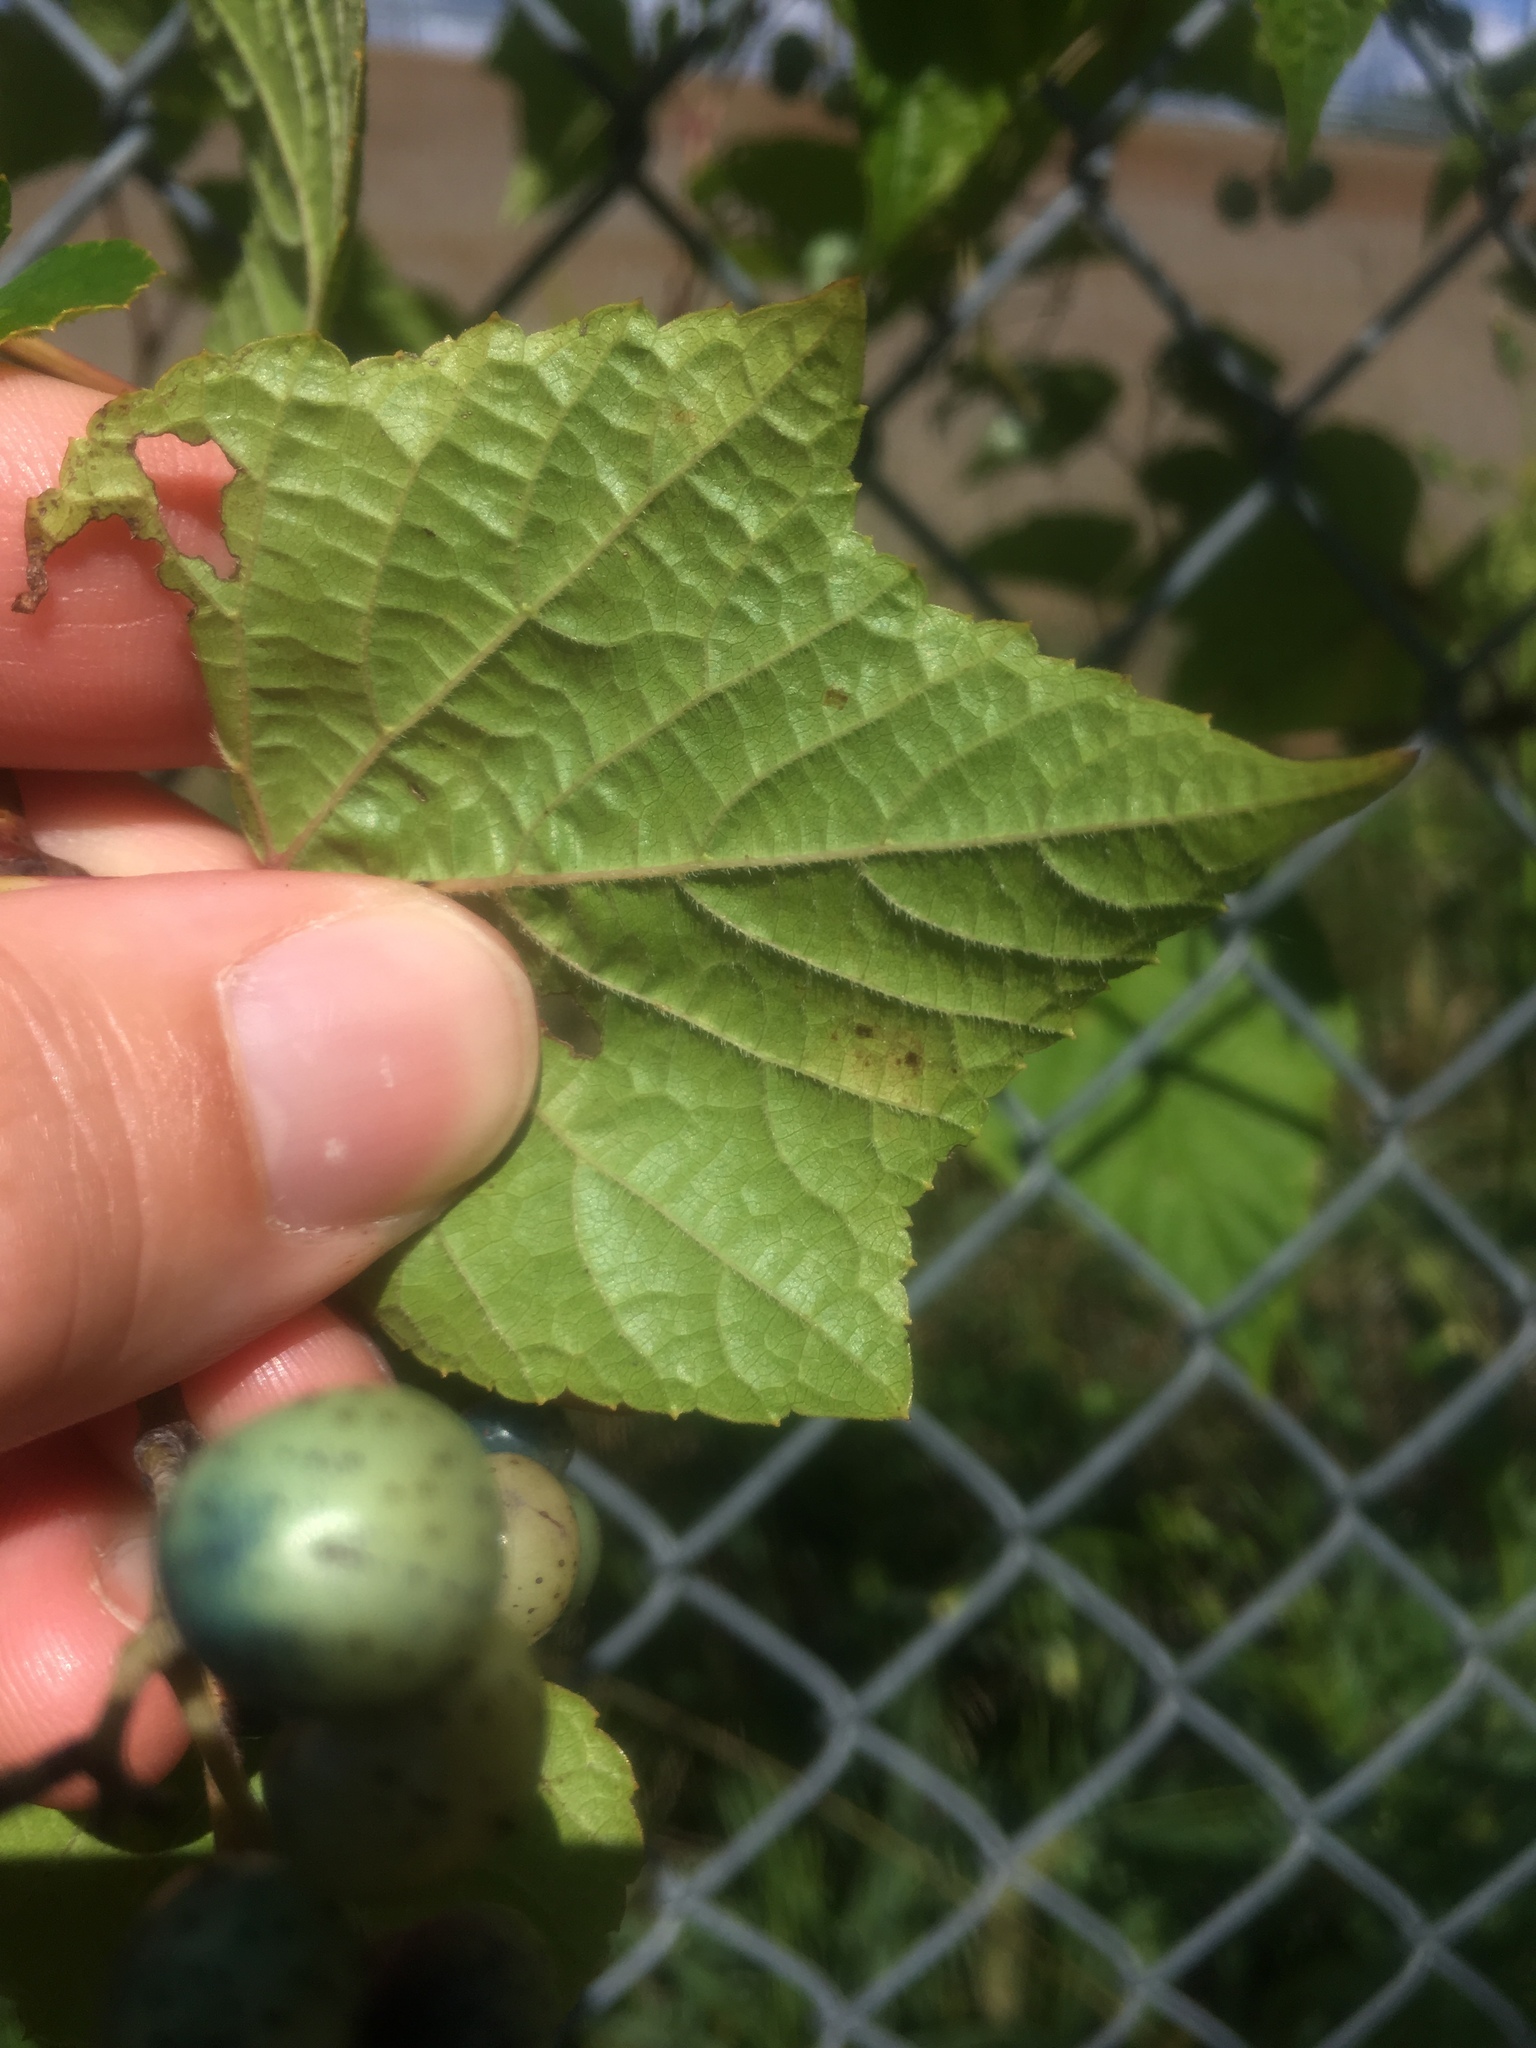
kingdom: Plantae
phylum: Tracheophyta
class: Magnoliopsida
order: Vitales
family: Vitaceae
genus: Ampelopsis
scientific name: Ampelopsis glandulosa
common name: Amur peppervine
